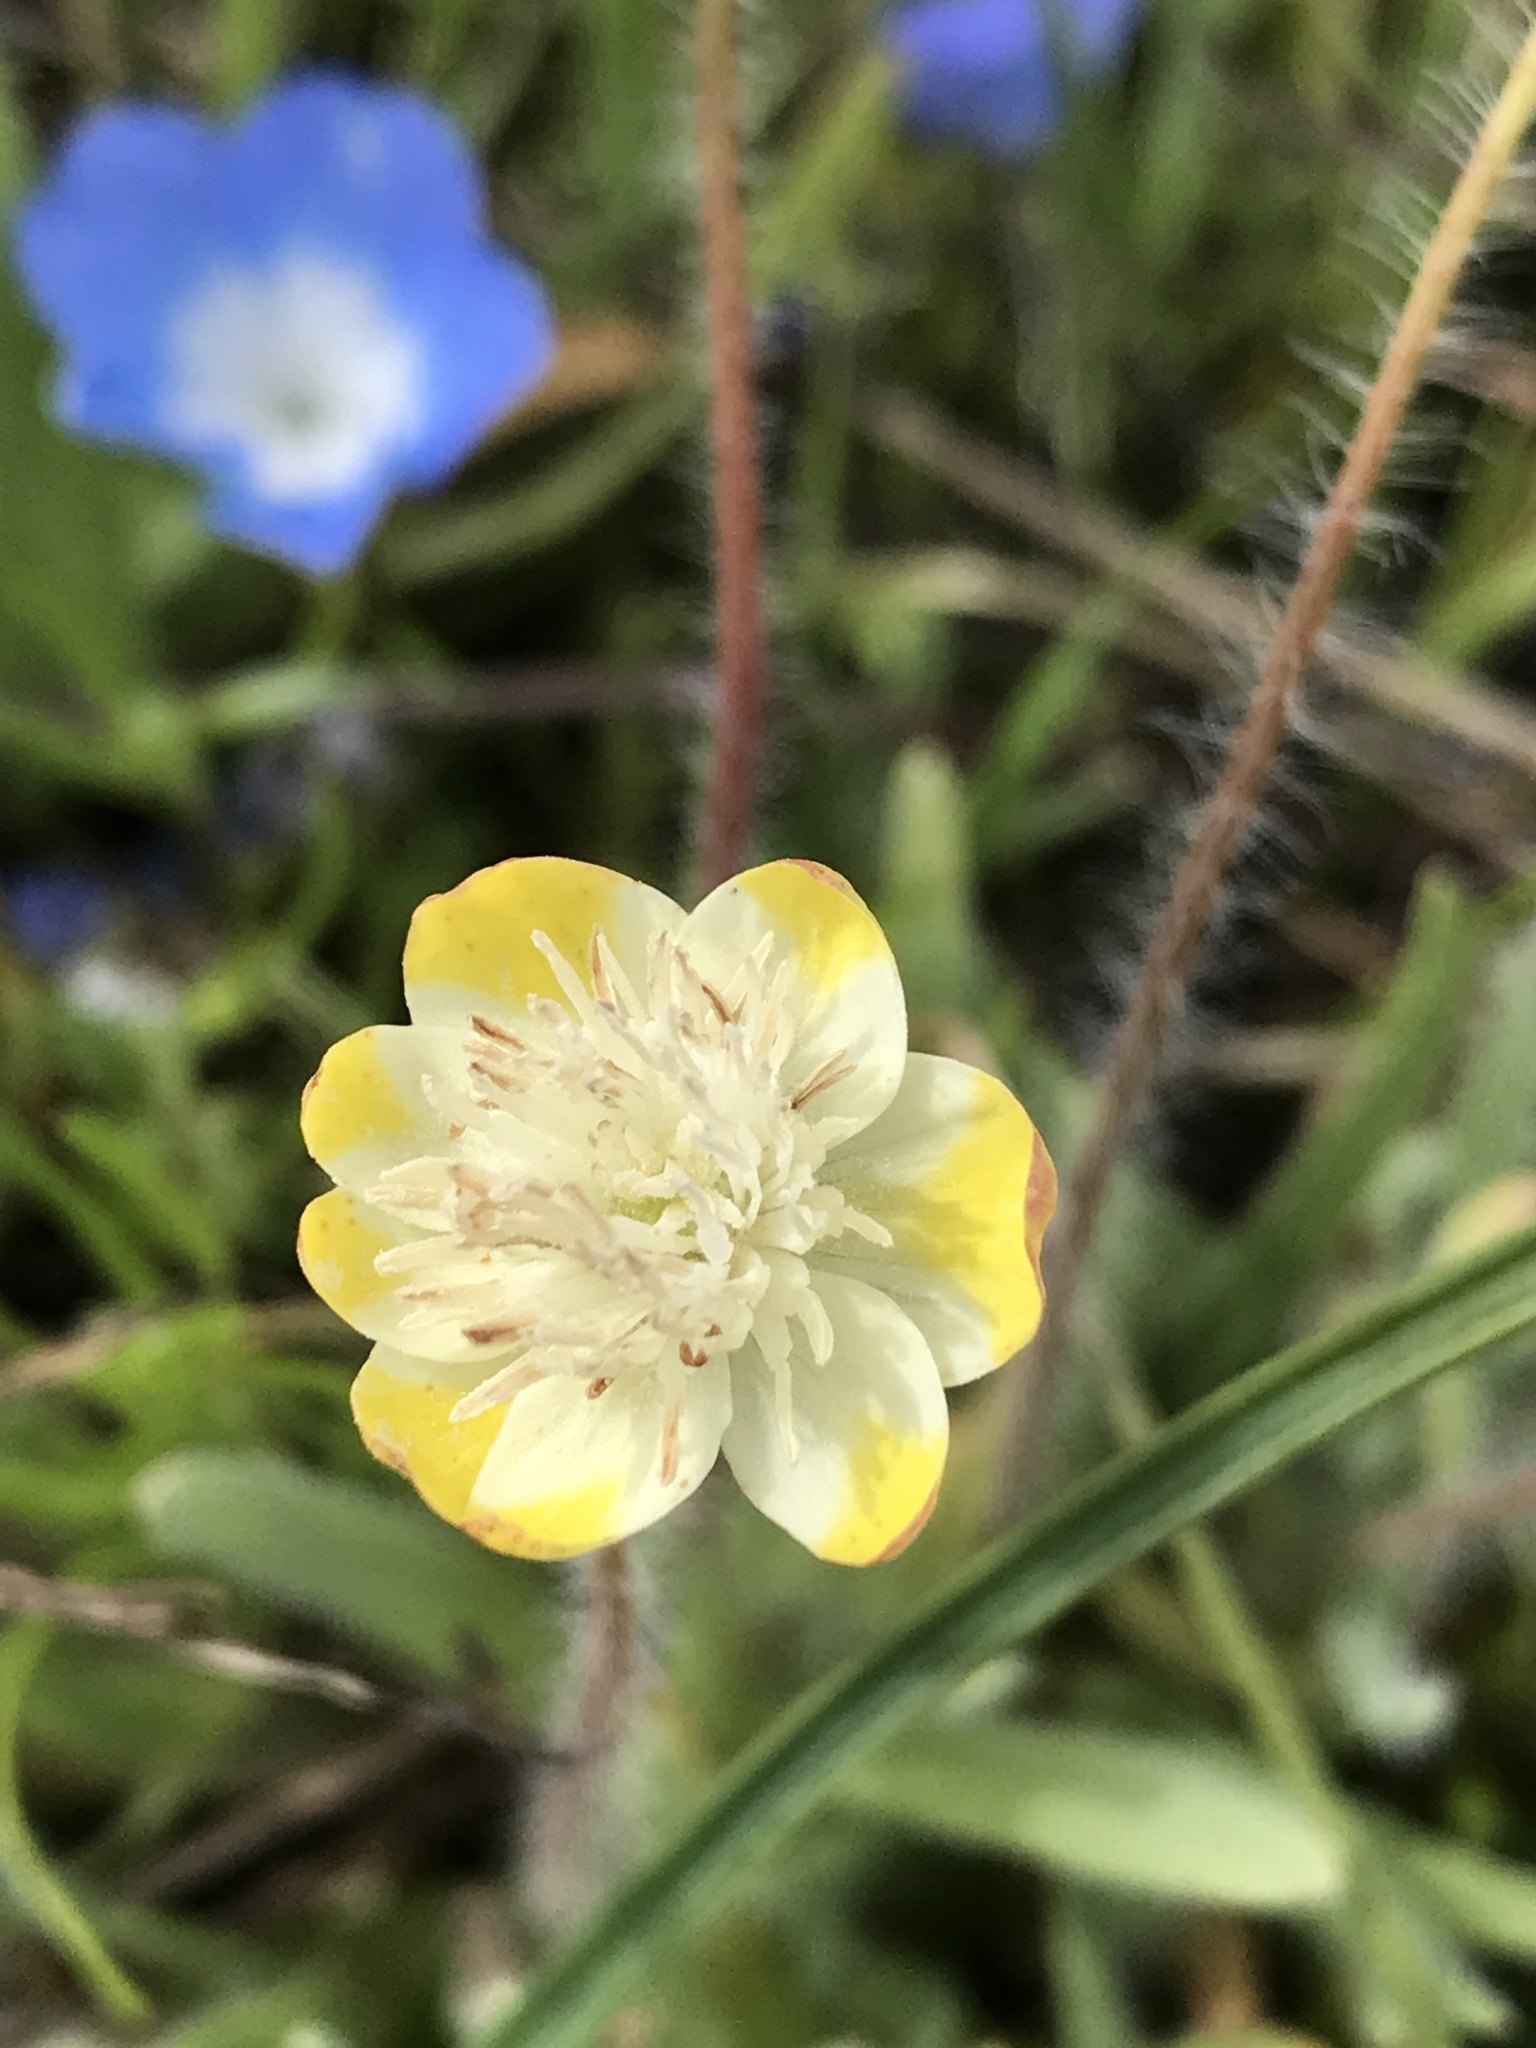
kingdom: Plantae
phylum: Tracheophyta
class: Magnoliopsida
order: Ranunculales
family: Papaveraceae
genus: Platystemon
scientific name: Platystemon californicus
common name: Cream-cups
